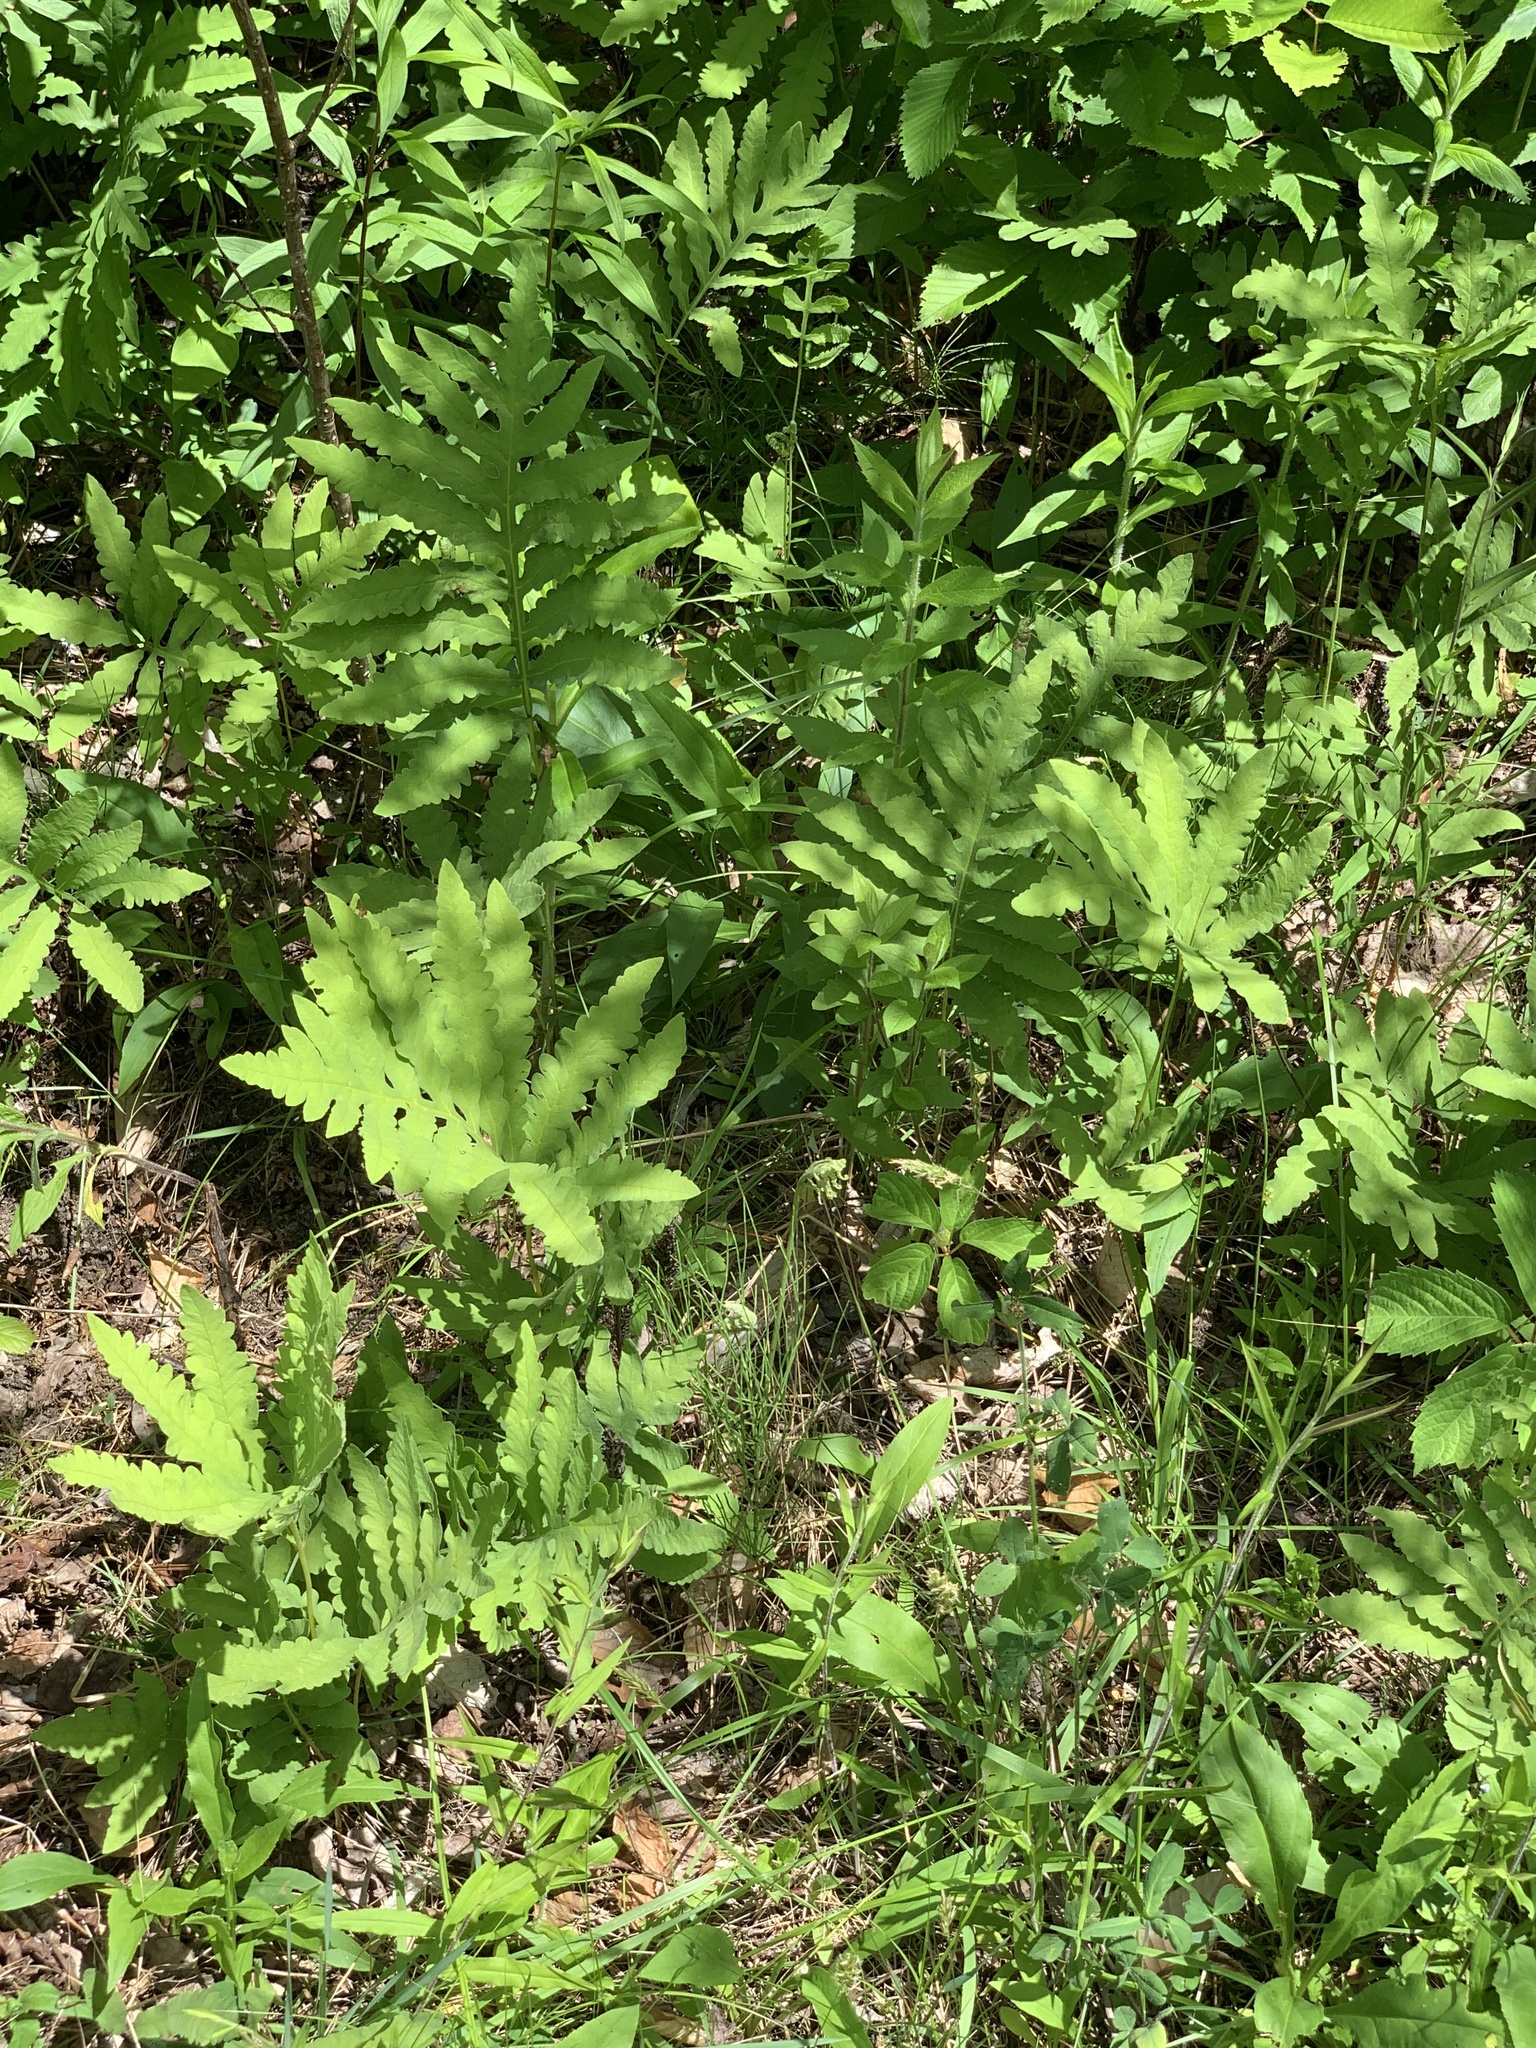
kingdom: Plantae
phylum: Tracheophyta
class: Polypodiopsida
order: Polypodiales
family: Onocleaceae
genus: Onoclea
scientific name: Onoclea sensibilis
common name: Sensitive fern
